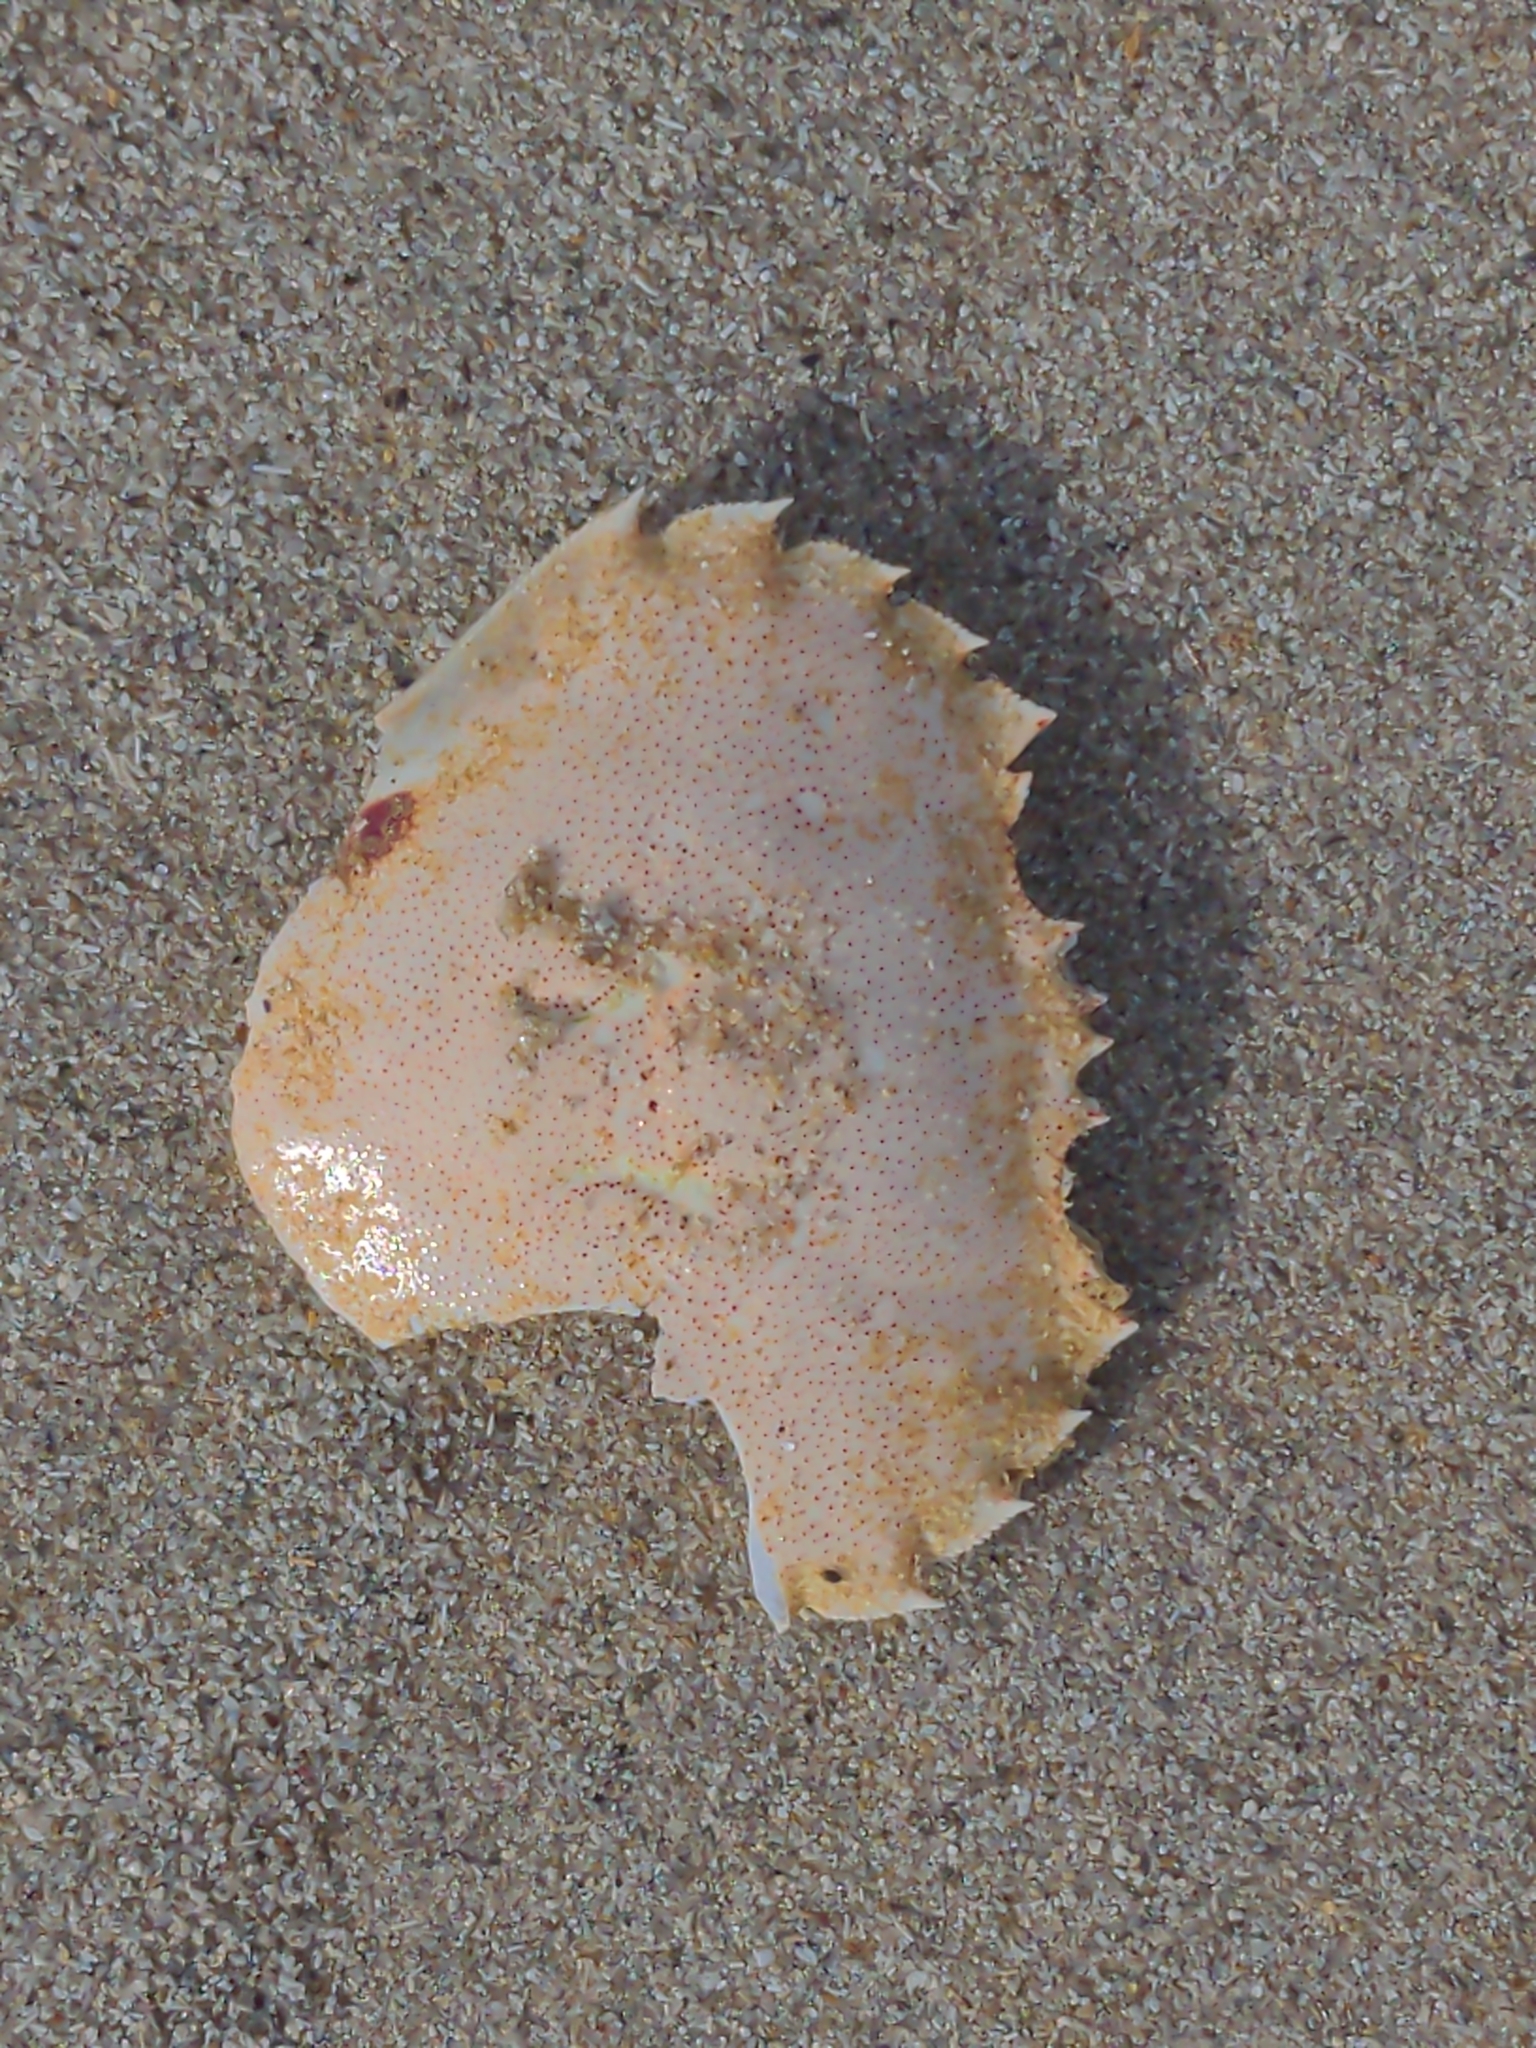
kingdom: Animalia
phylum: Arthropoda
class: Malacostraca
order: Decapoda
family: Ovalipidae
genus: Ovalipes
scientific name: Ovalipes australiensis
